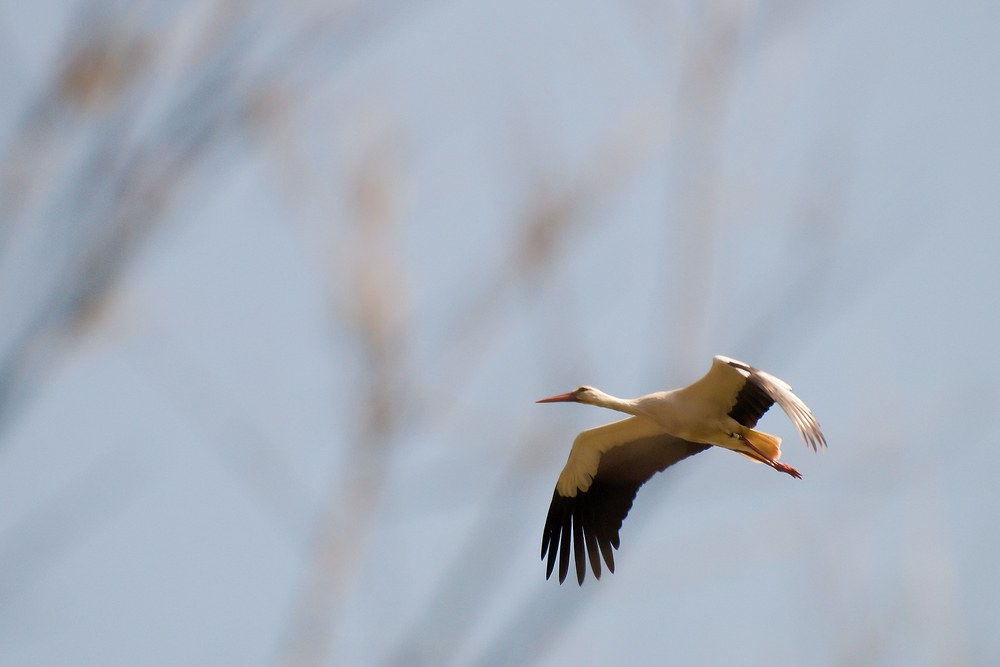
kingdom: Animalia
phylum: Chordata
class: Aves
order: Ciconiiformes
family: Ciconiidae
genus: Ciconia
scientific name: Ciconia ciconia
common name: White stork
